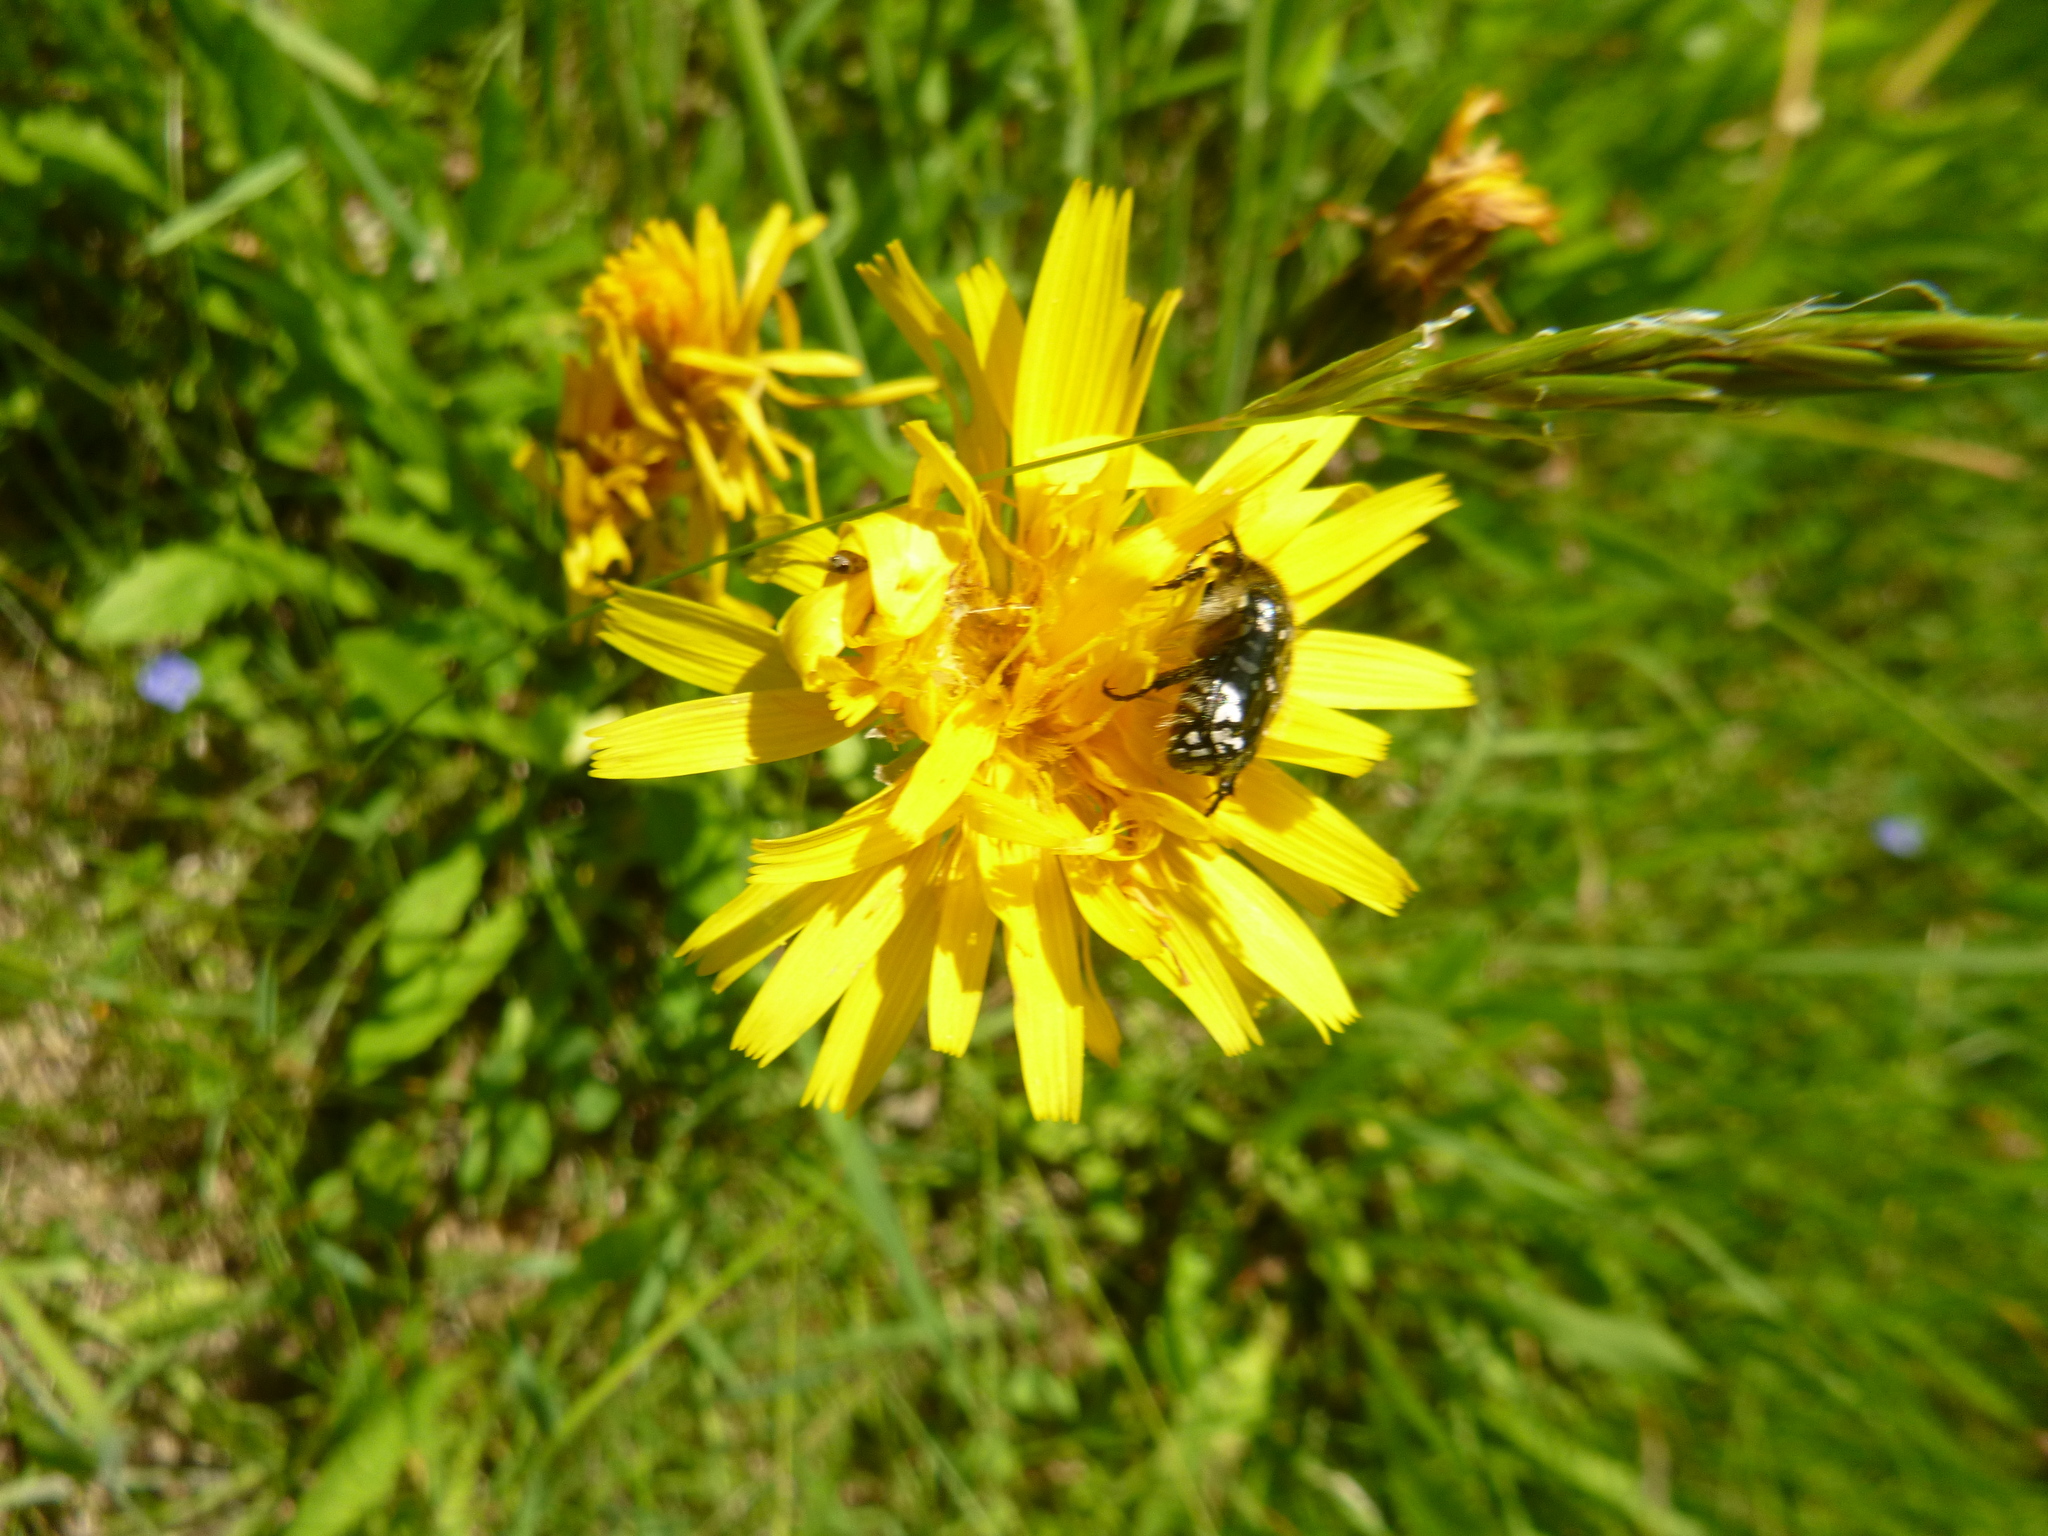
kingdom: Animalia
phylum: Arthropoda
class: Insecta
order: Coleoptera
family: Scarabaeidae
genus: Oxythyrea
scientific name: Oxythyrea funesta
